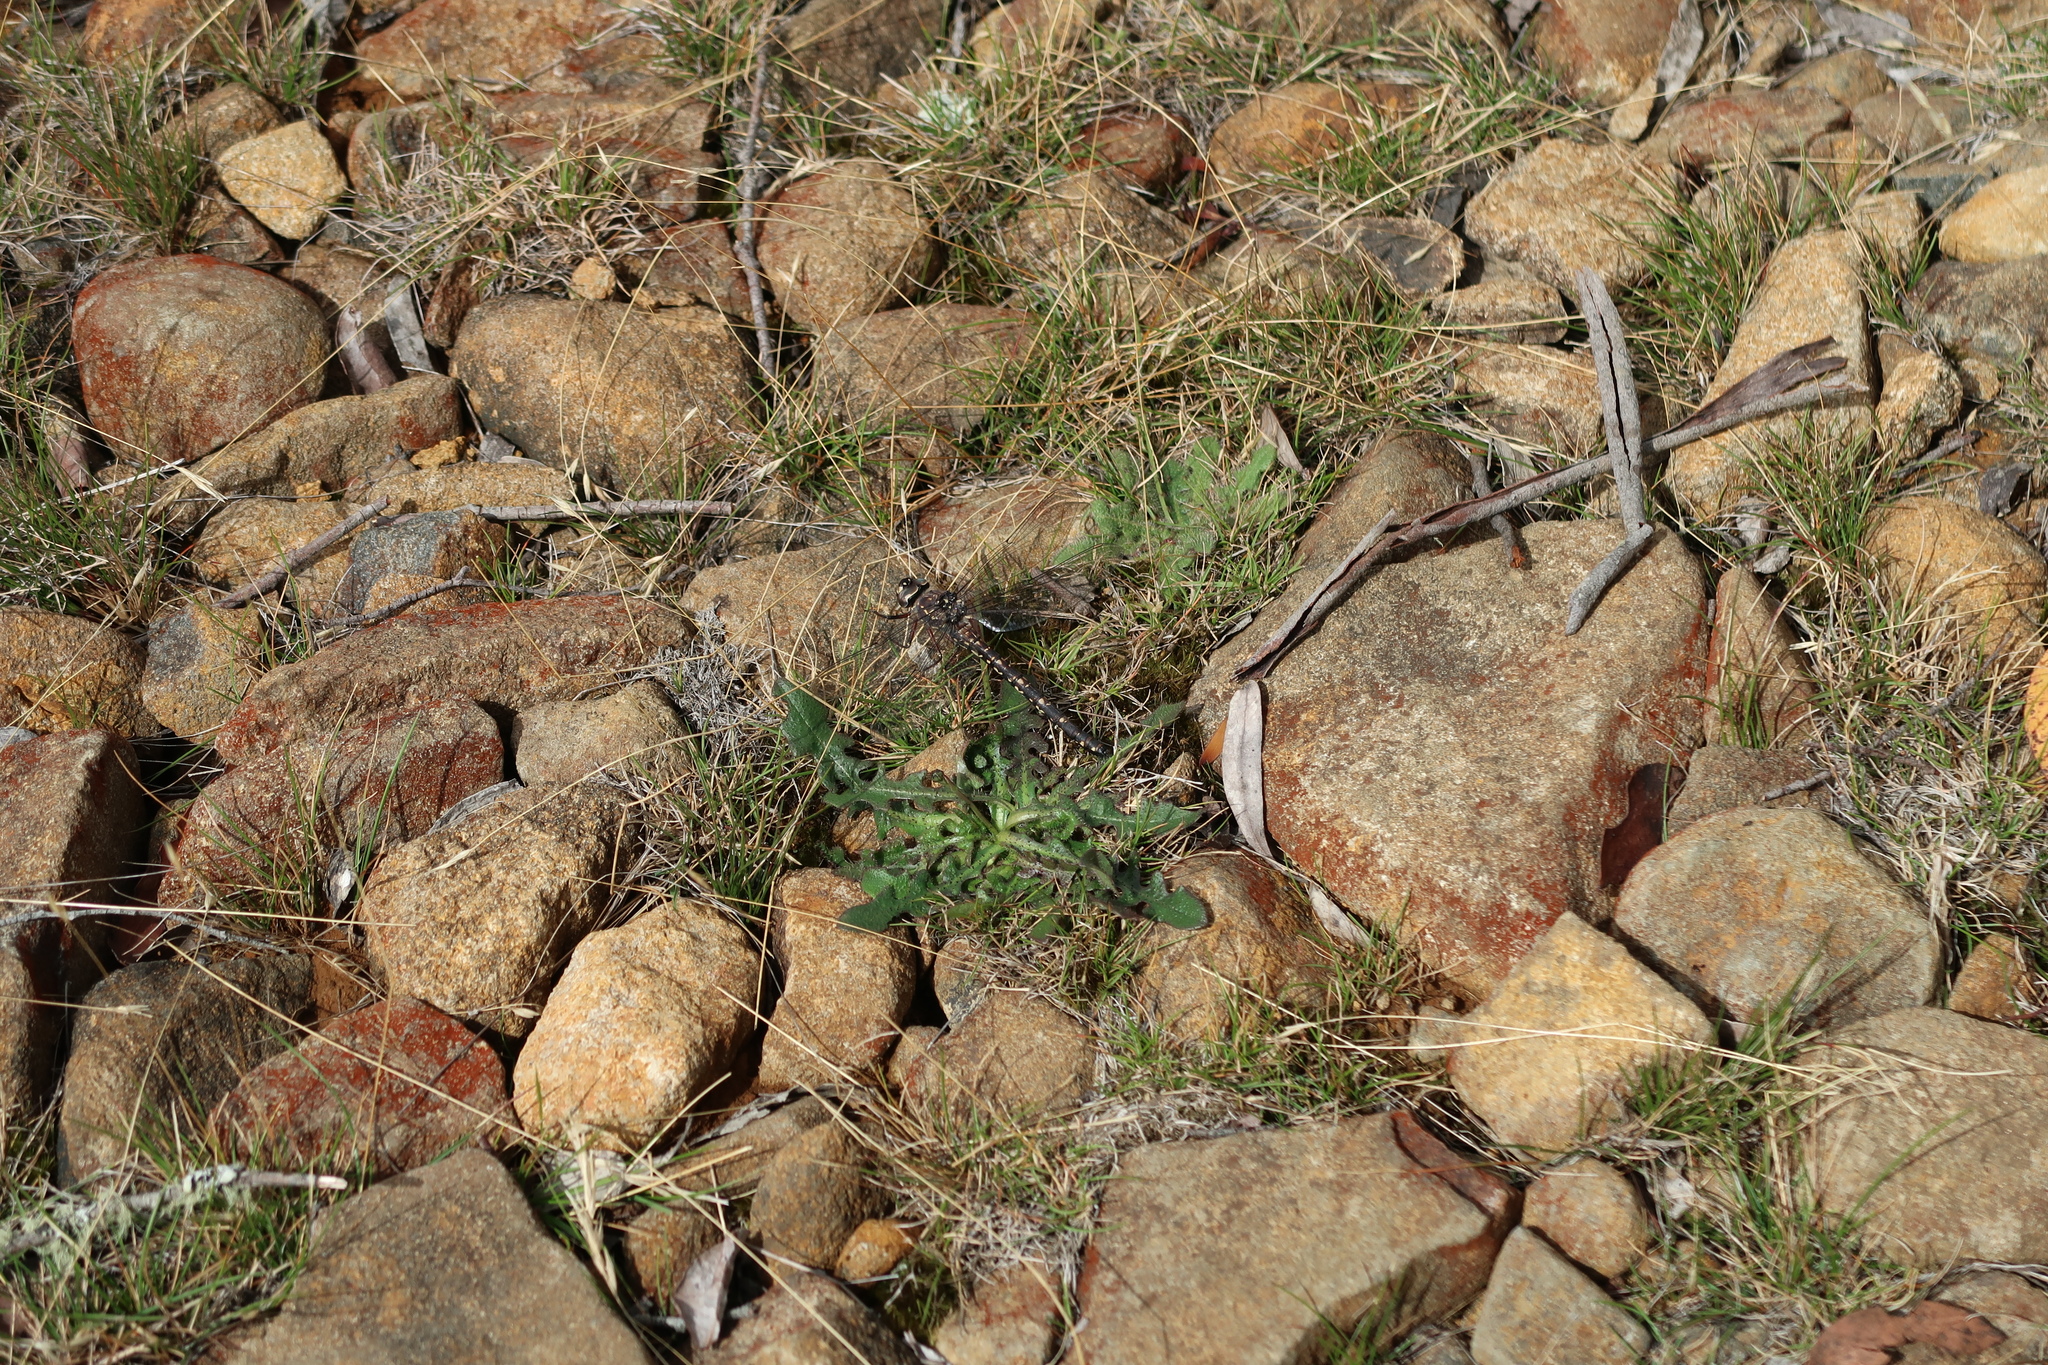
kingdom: Animalia
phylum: Arthropoda
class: Insecta
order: Odonata
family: Aeshnidae
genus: Austroaeschna
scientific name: Austroaeschna parvistigma
